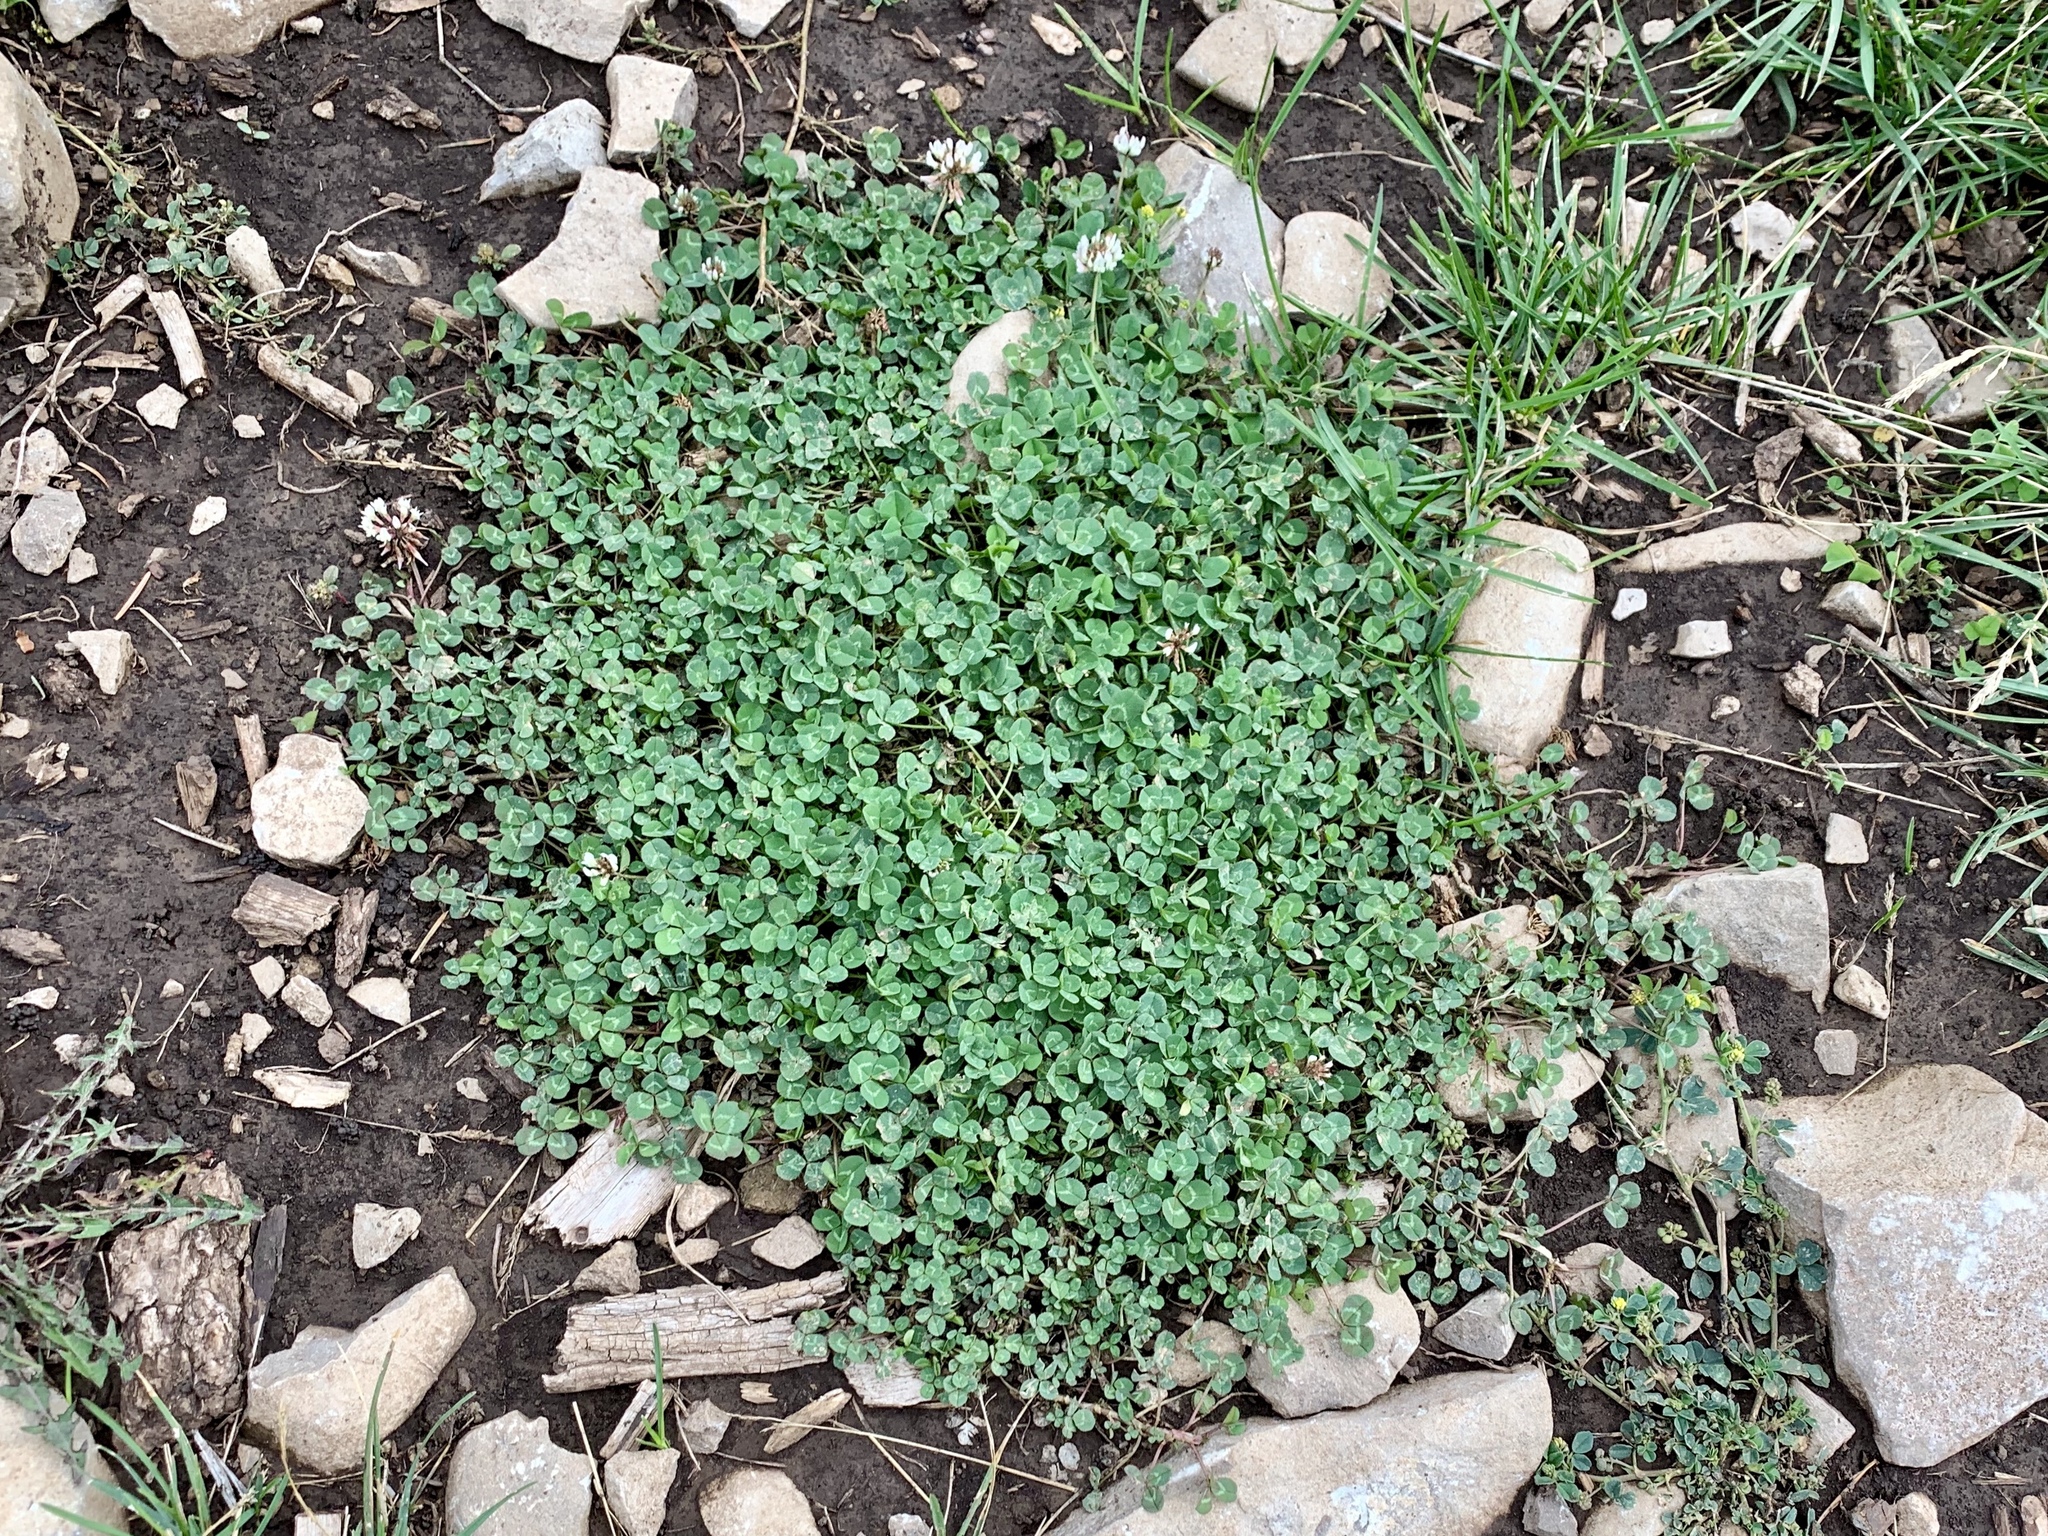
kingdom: Plantae
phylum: Tracheophyta
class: Magnoliopsida
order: Fabales
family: Fabaceae
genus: Trifolium
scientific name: Trifolium repens
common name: White clover
